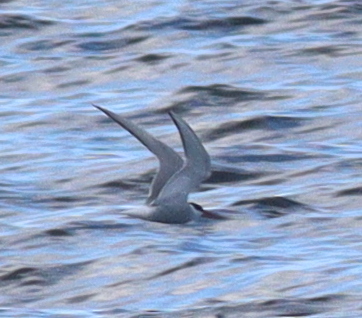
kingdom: Animalia
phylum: Chordata
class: Aves
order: Charadriiformes
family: Laridae
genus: Sterna
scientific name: Sterna paradisaea
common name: Arctic tern
